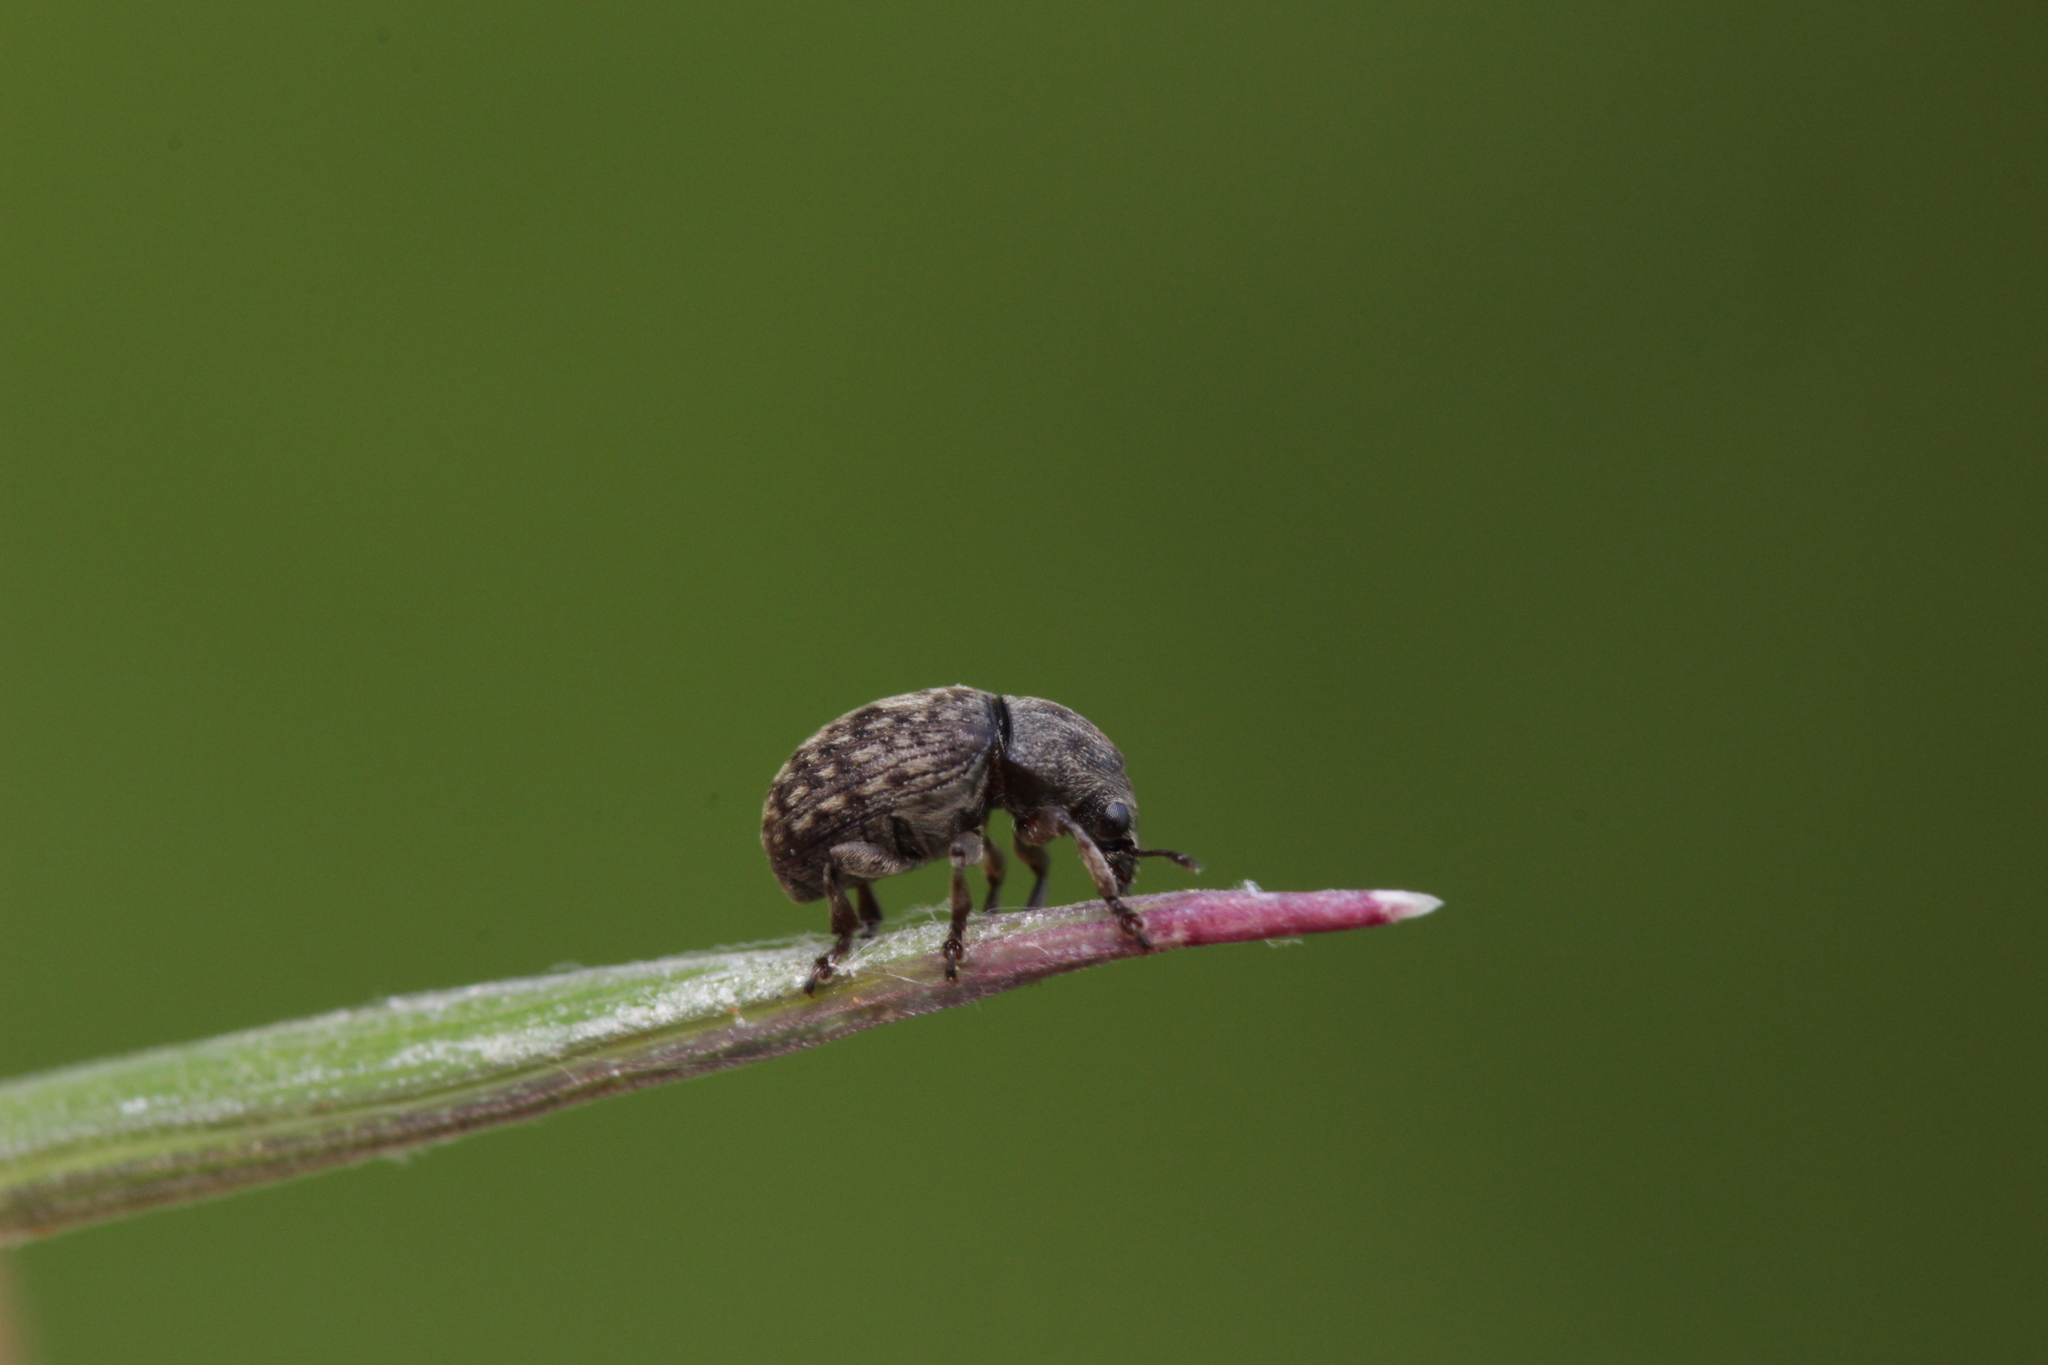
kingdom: Animalia
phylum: Arthropoda
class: Insecta
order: Coleoptera
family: Anthribidae
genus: Anthribus
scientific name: Anthribus nebulosus
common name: Fungus weevil
